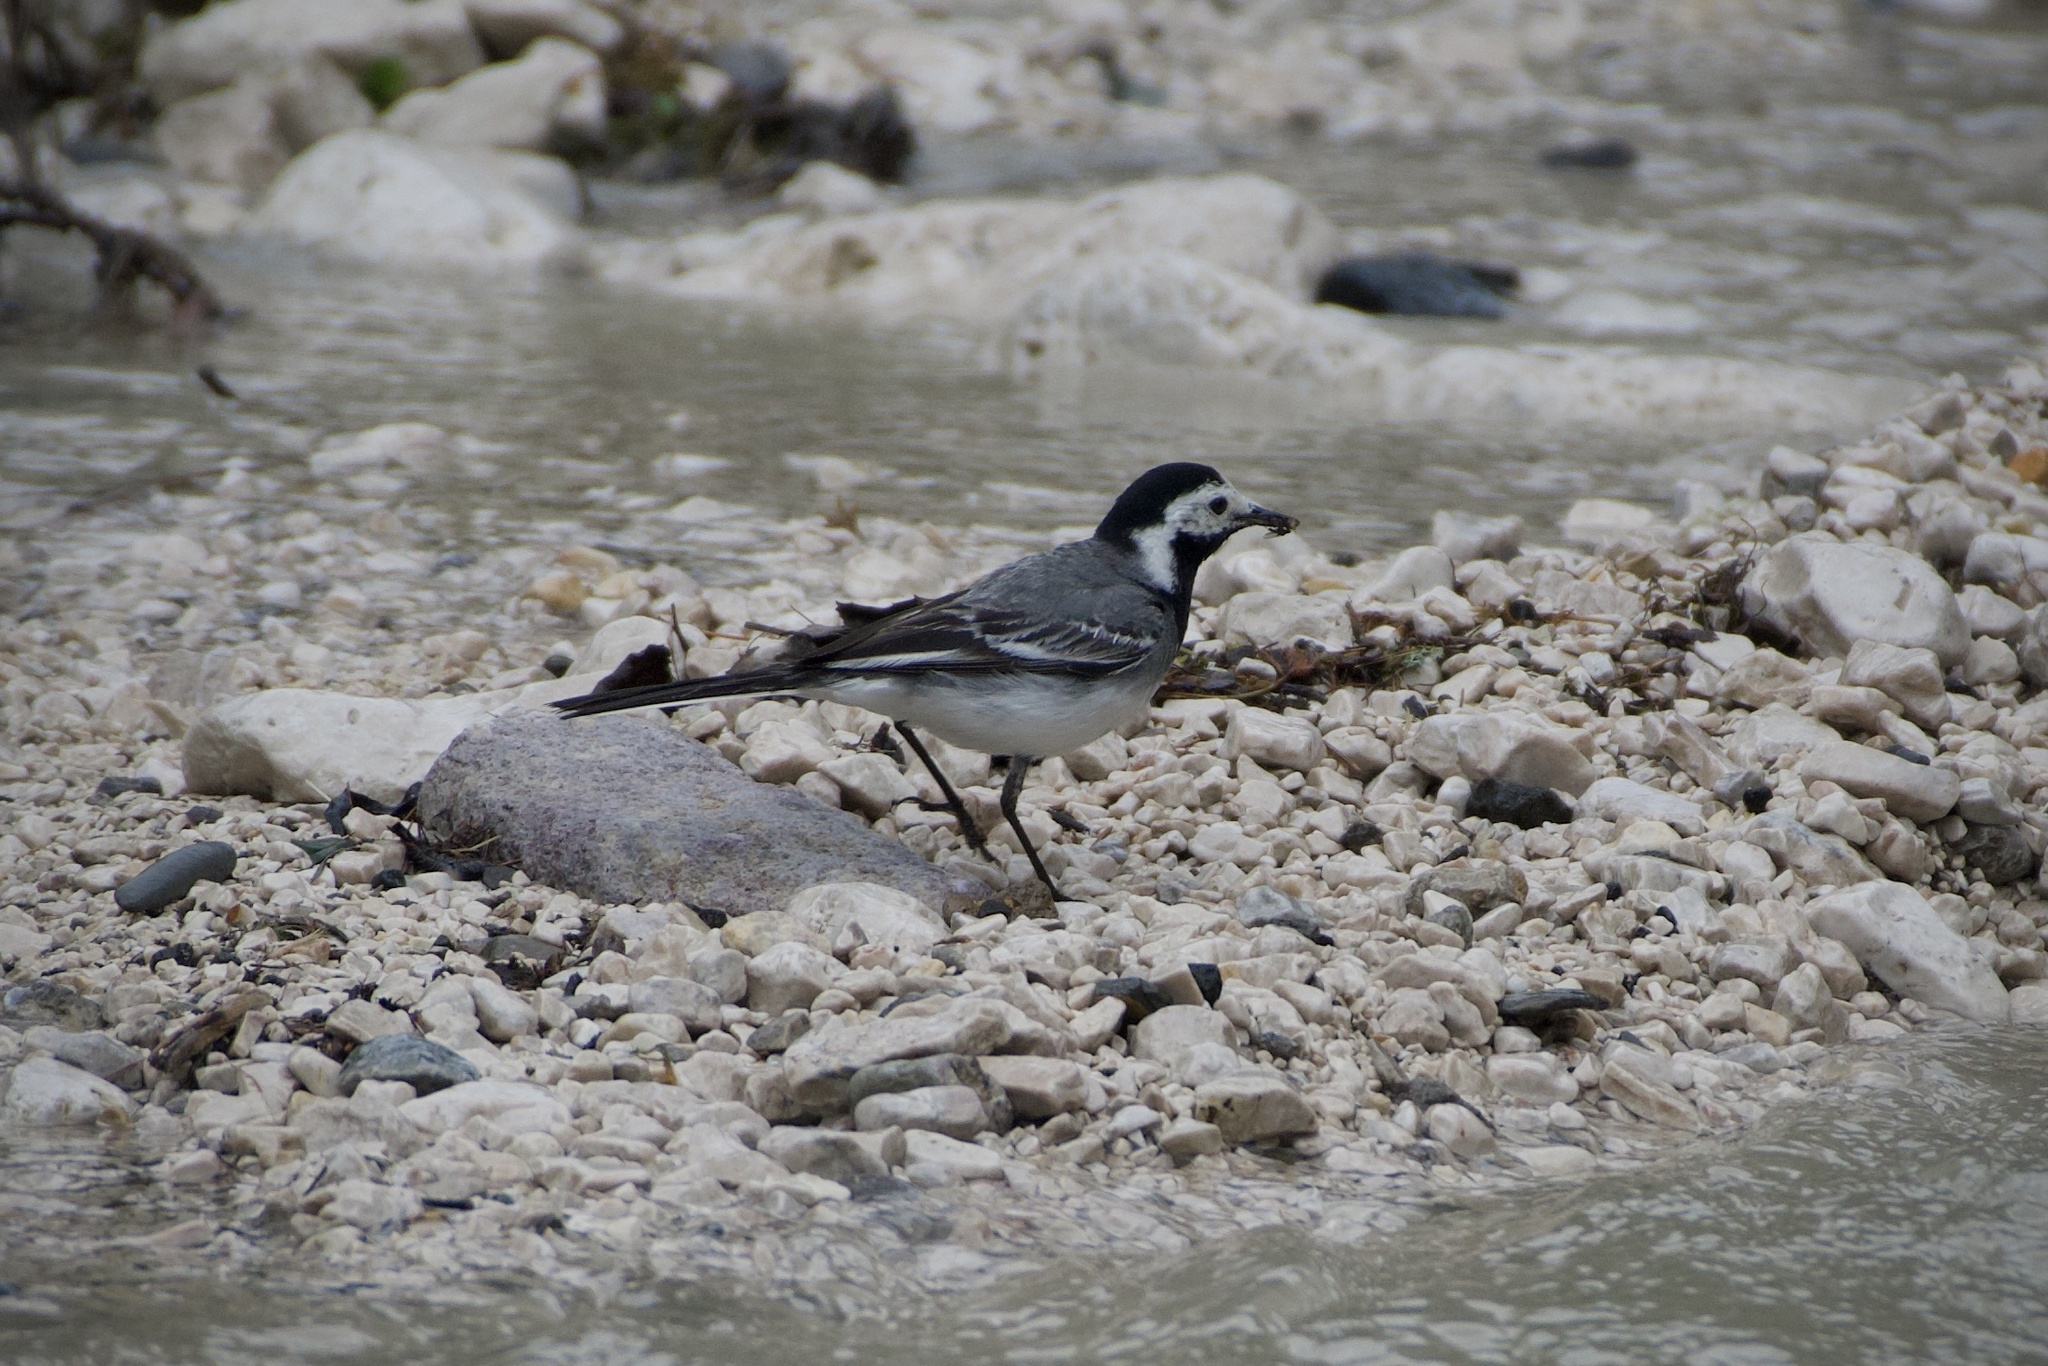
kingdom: Animalia
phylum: Chordata
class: Aves
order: Passeriformes
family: Motacillidae
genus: Motacilla
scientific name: Motacilla alba
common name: White wagtail
